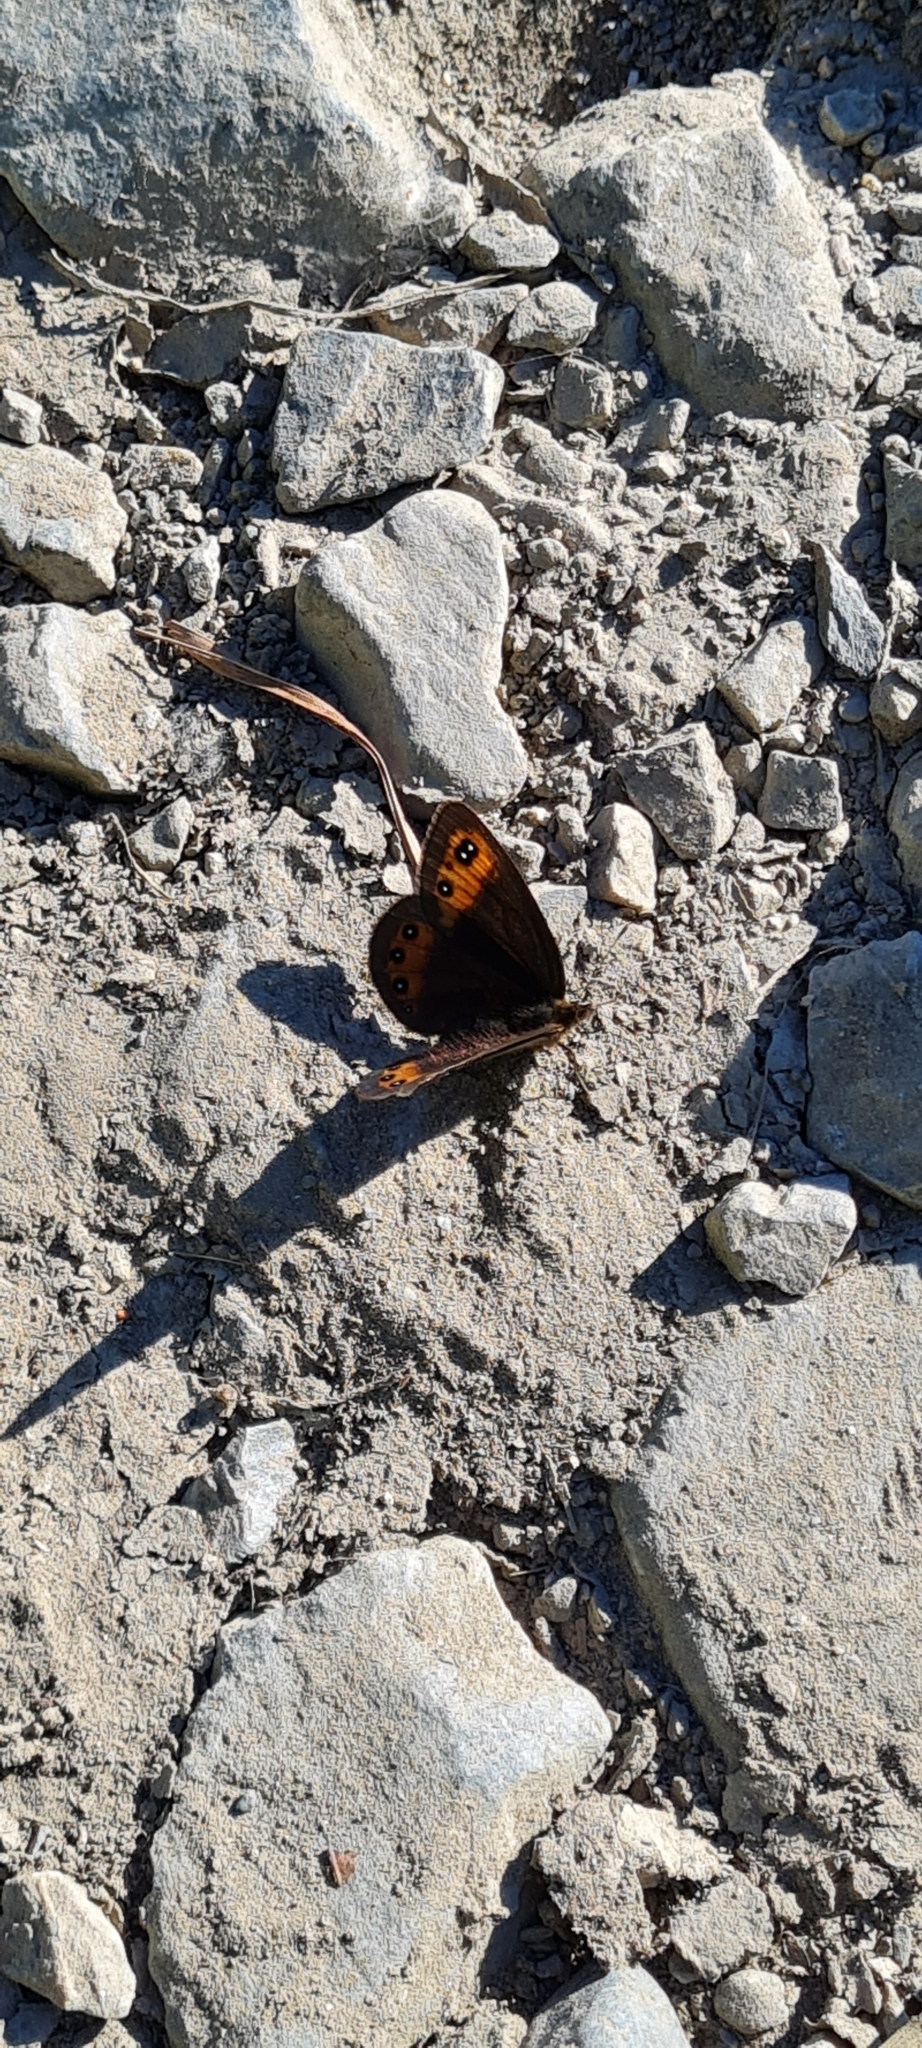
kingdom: Animalia
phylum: Arthropoda
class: Insecta
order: Lepidoptera
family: Nymphalidae
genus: Erebia
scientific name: Erebia meolans
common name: Piedmont ringlet
